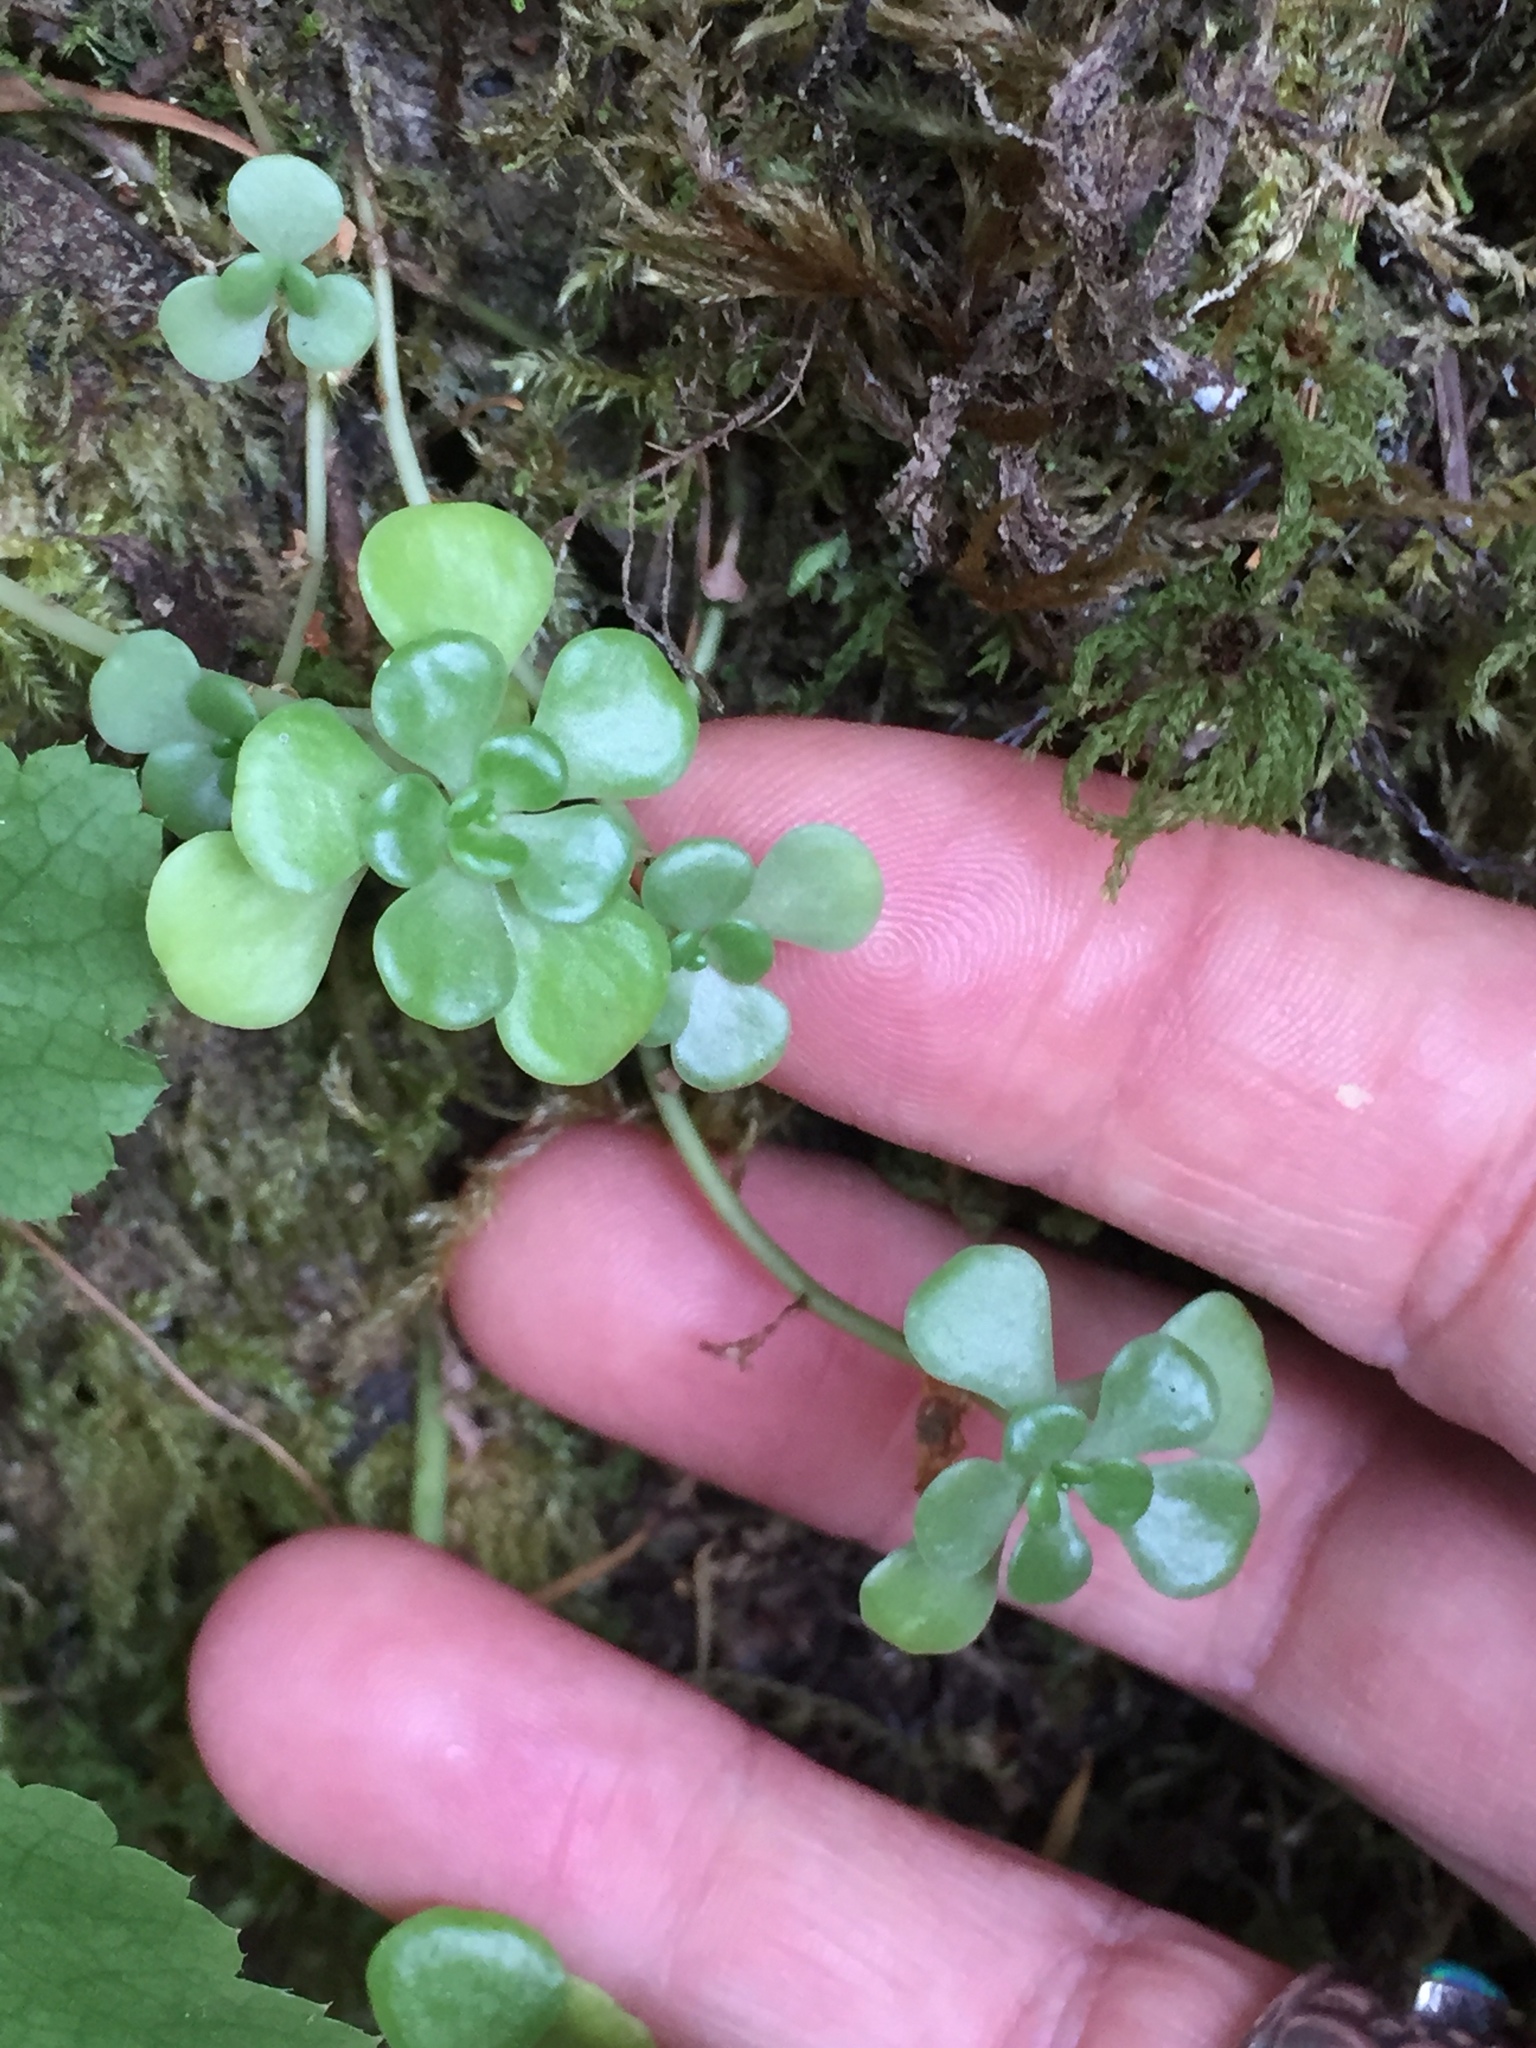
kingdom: Plantae
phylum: Tracheophyta
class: Magnoliopsida
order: Saxifragales
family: Crassulaceae
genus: Sedum
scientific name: Sedum oreganum
